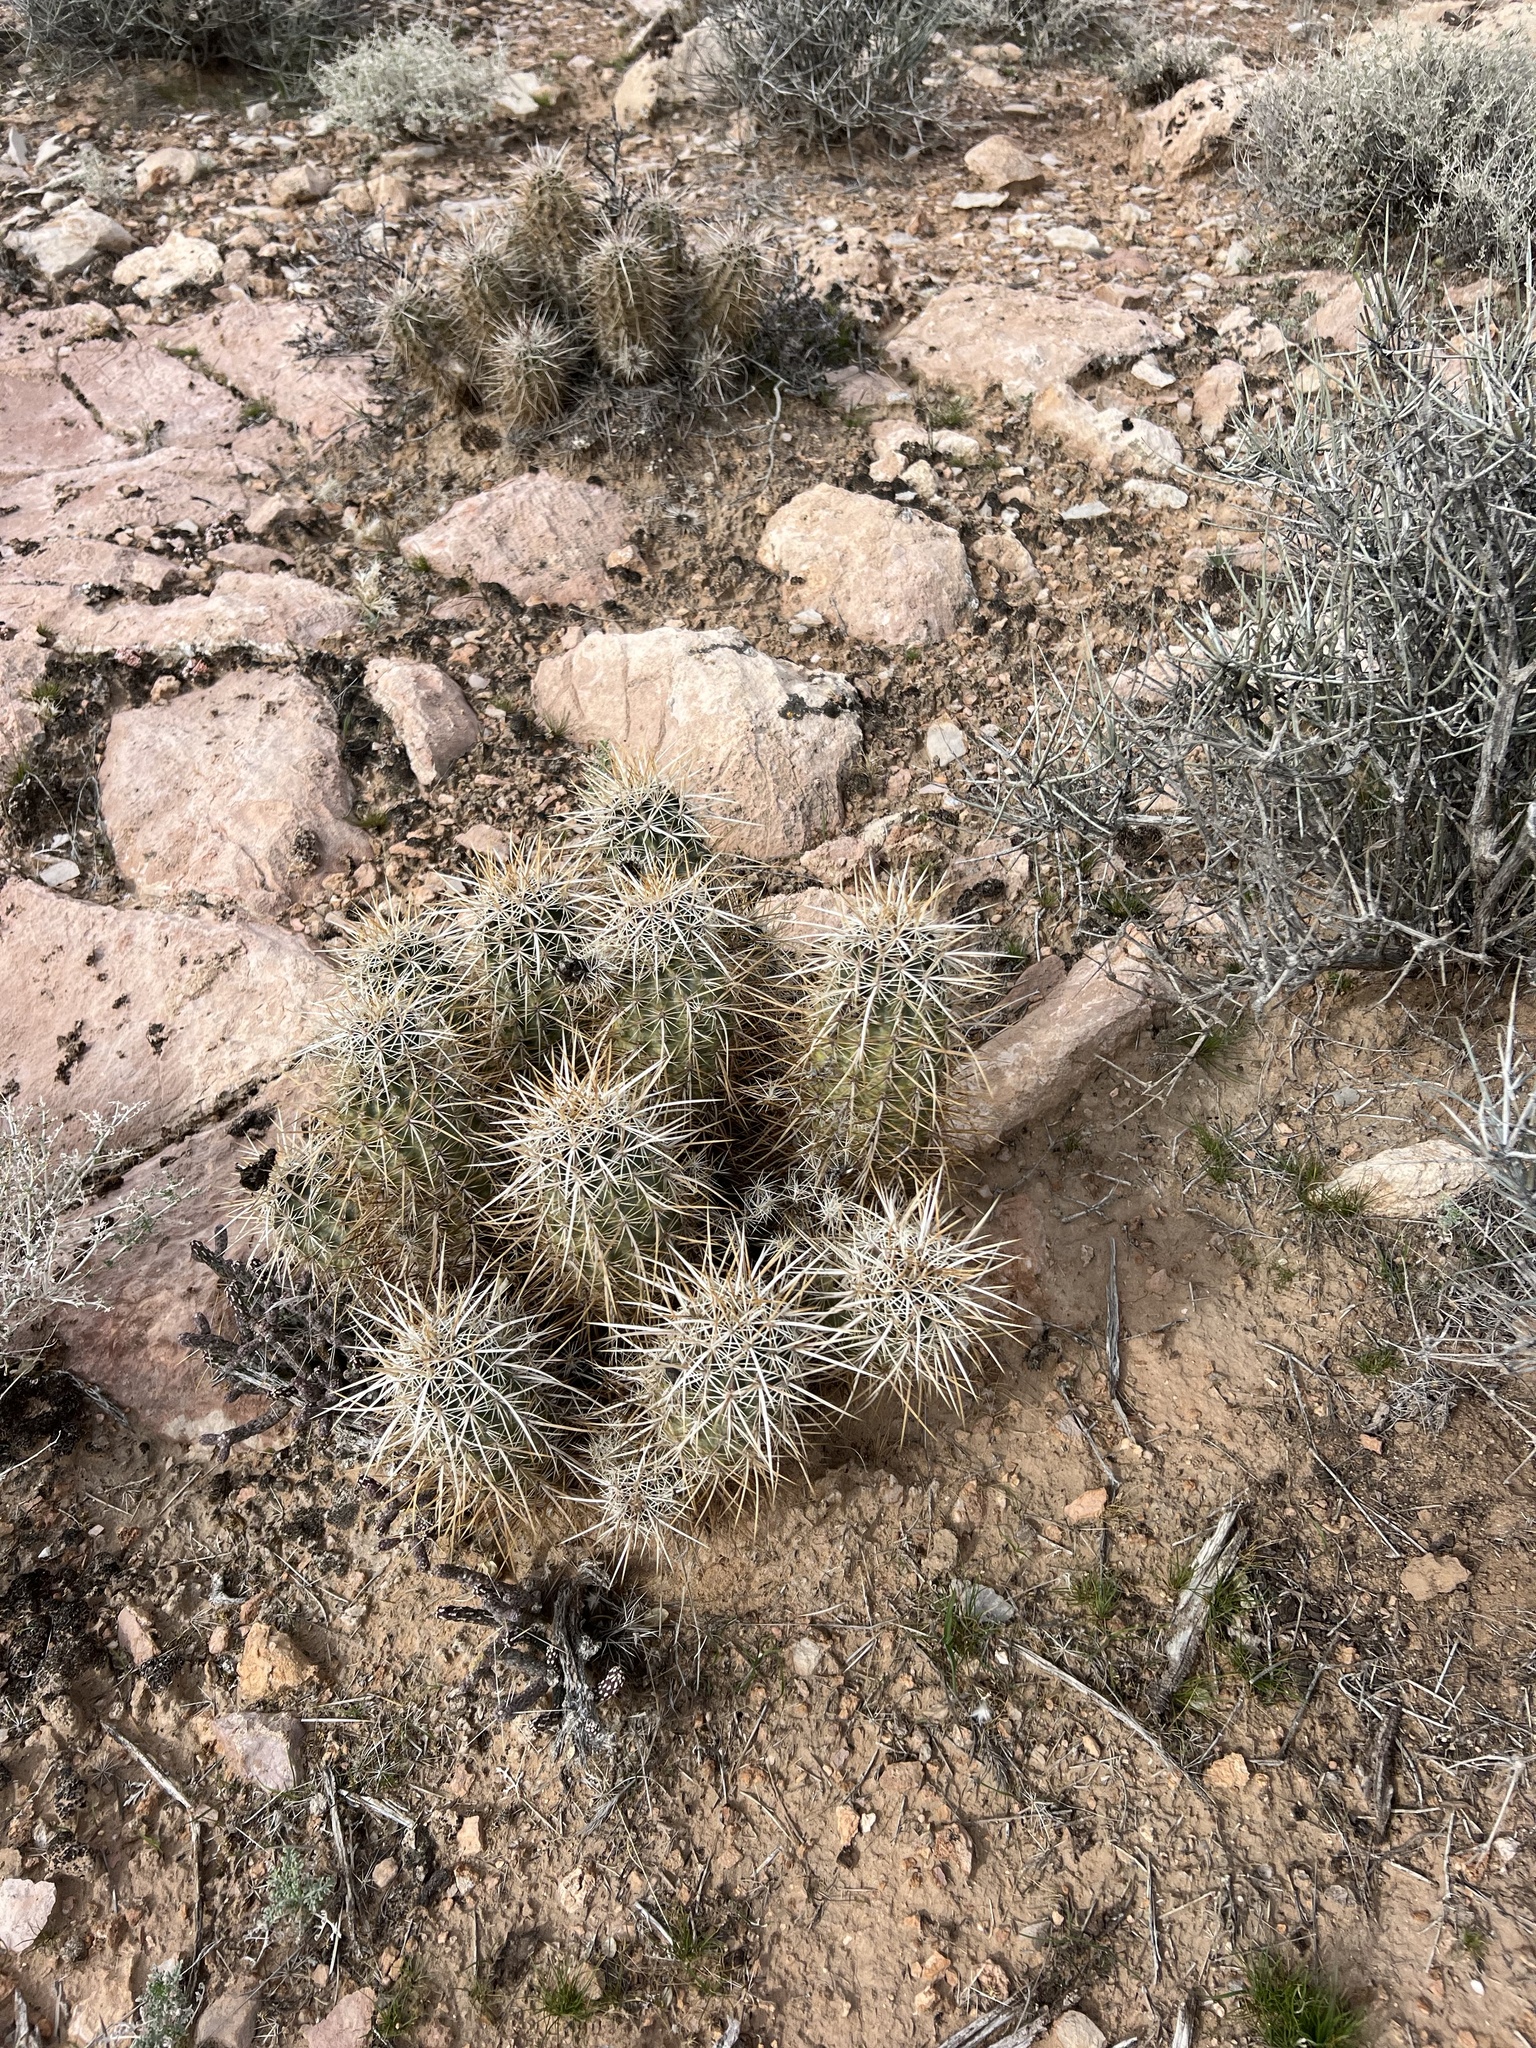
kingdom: Plantae
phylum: Tracheophyta
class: Magnoliopsida
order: Caryophyllales
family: Cactaceae
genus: Echinocereus
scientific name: Echinocereus engelmannii
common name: Engelmann's hedgehog cactus
